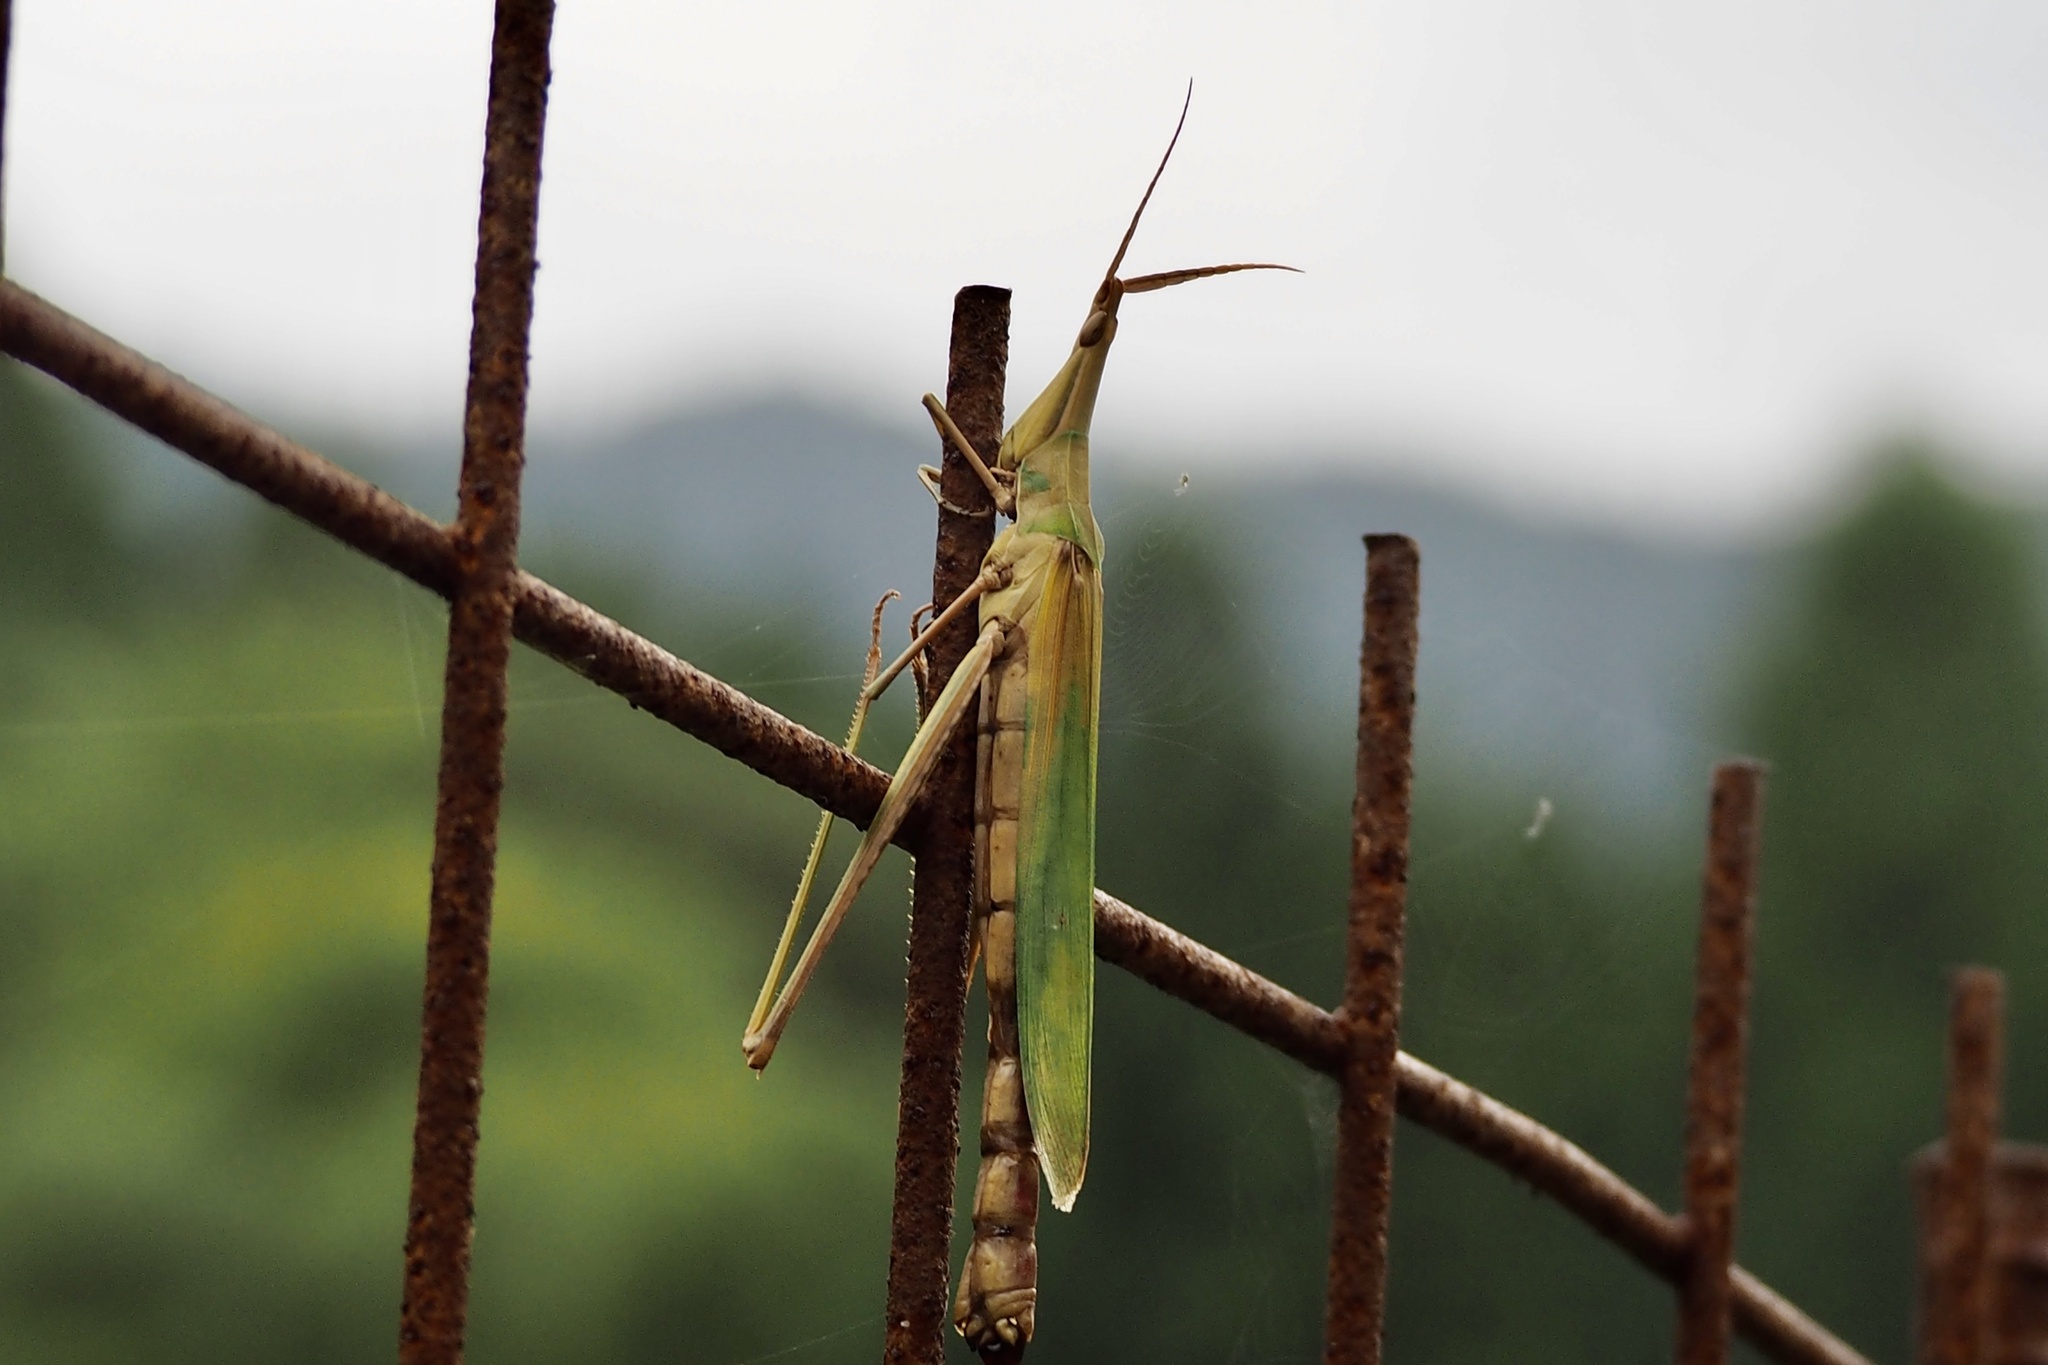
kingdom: Fungi
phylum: Entomophthoromycota
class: Entomophthoromycetes
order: Entomophthorales
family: Entomophthoraceae
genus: Entomophaga
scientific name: Entomophaga grylli
